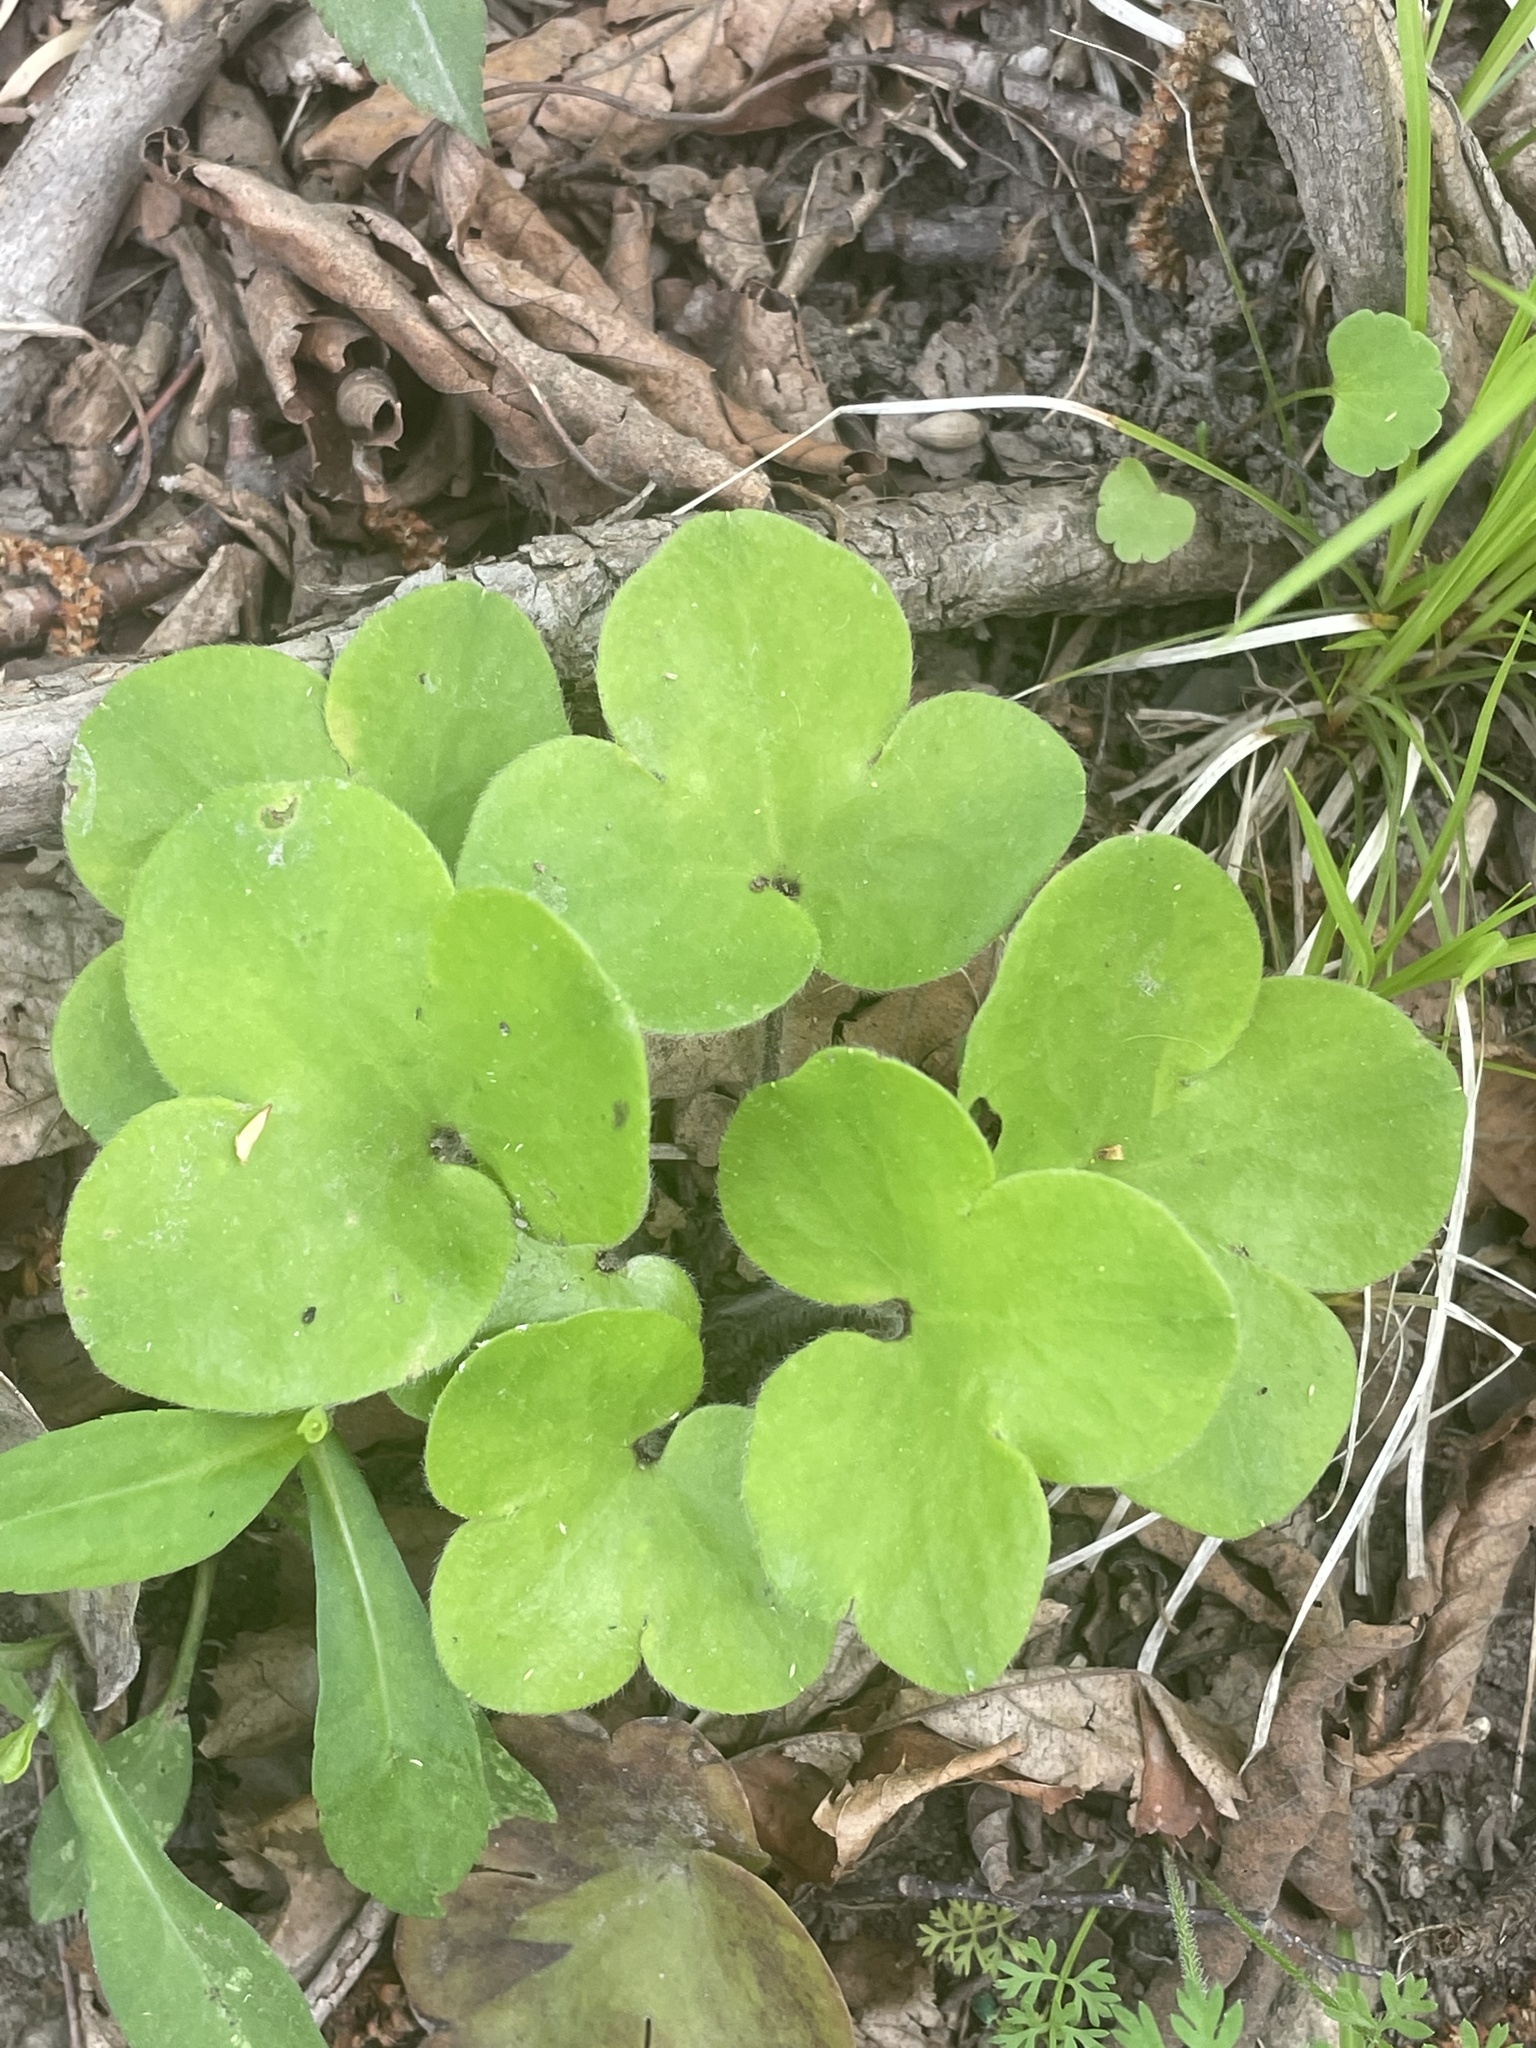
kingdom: Plantae
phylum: Tracheophyta
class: Magnoliopsida
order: Ranunculales
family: Ranunculaceae
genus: Hepatica
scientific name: Hepatica americana
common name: American hepatica
